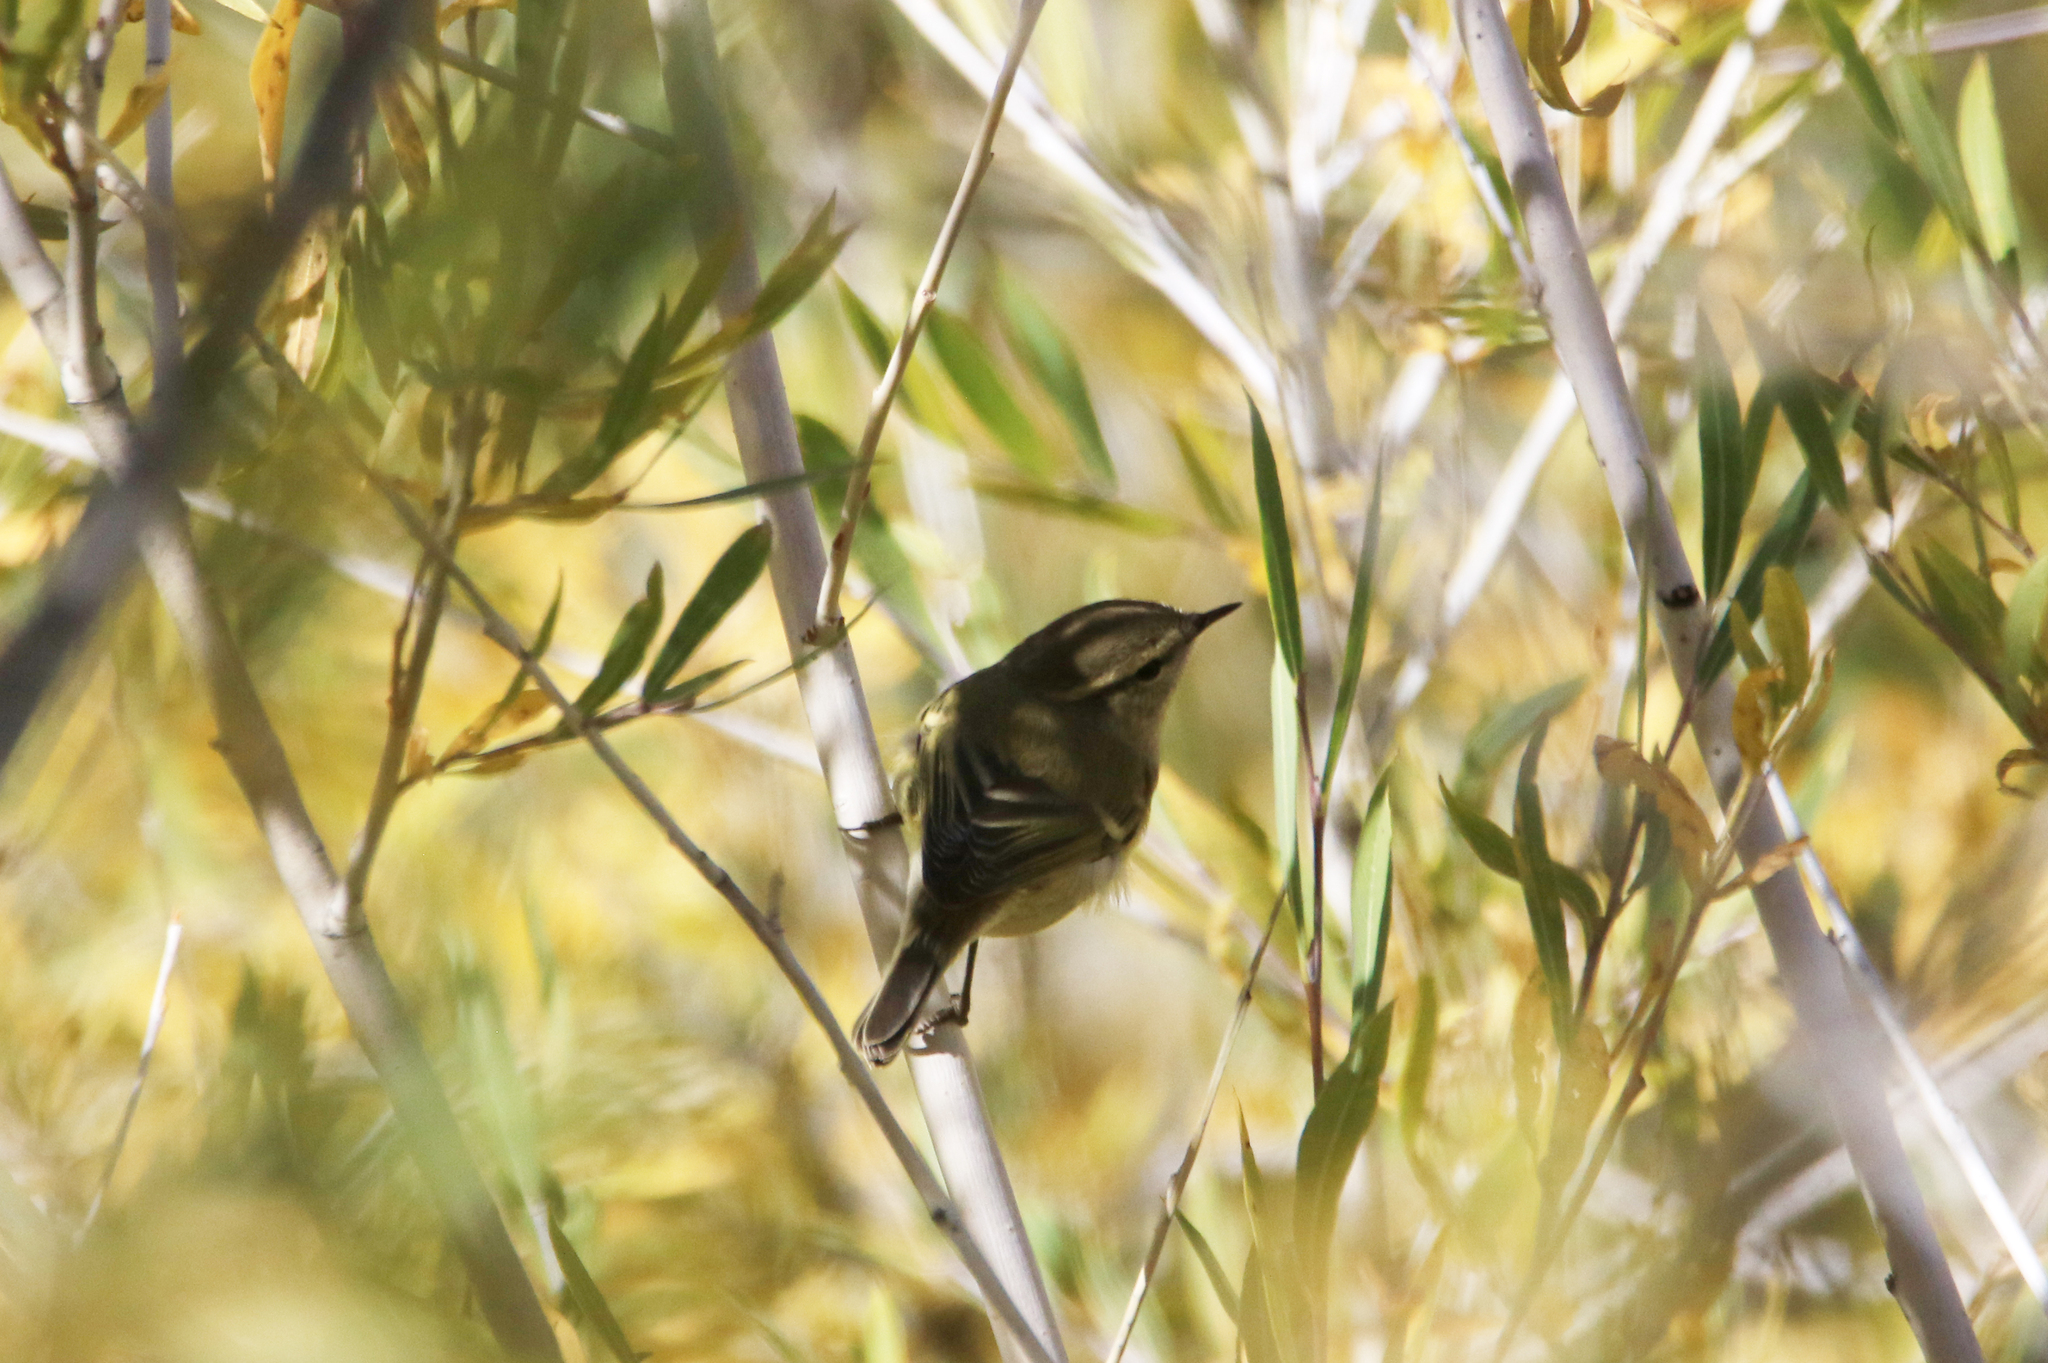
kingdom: Animalia
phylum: Chordata
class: Aves
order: Passeriformes
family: Phylloscopidae
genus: Phylloscopus
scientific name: Phylloscopus humei
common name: Hume's leaf warbler
